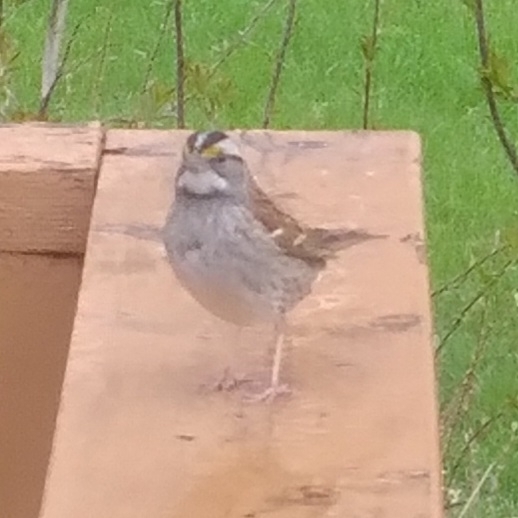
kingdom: Animalia
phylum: Chordata
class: Aves
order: Passeriformes
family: Passerellidae
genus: Zonotrichia
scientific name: Zonotrichia albicollis
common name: White-throated sparrow
